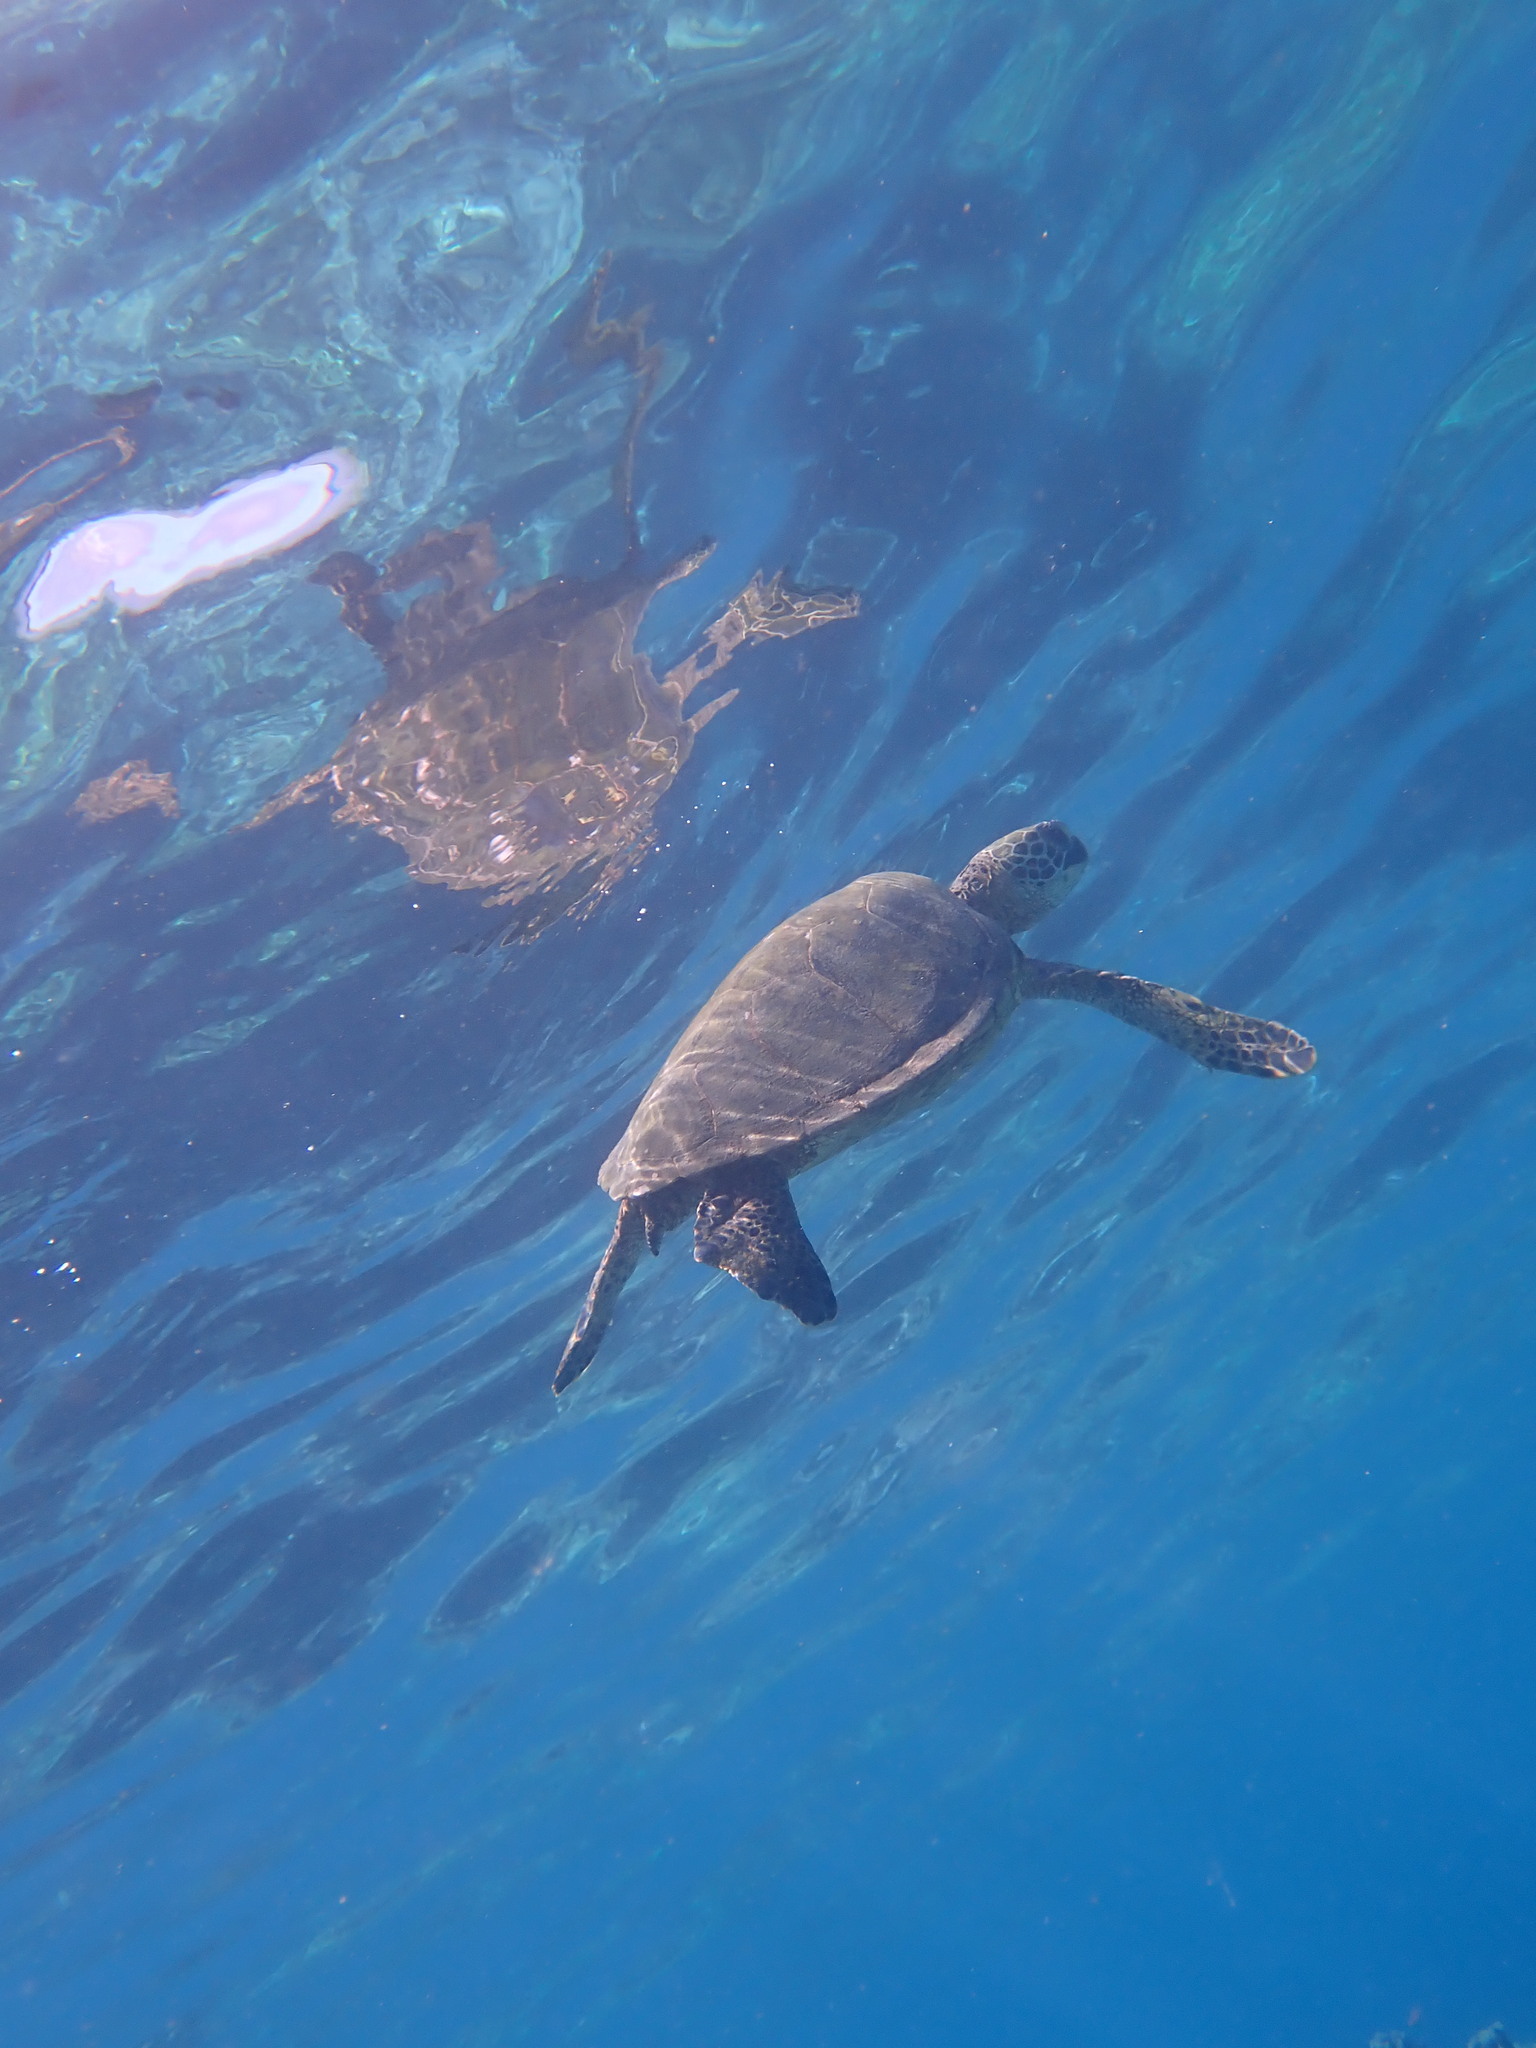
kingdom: Animalia
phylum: Chordata
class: Testudines
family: Cheloniidae
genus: Chelonia
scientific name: Chelonia mydas
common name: Green turtle
